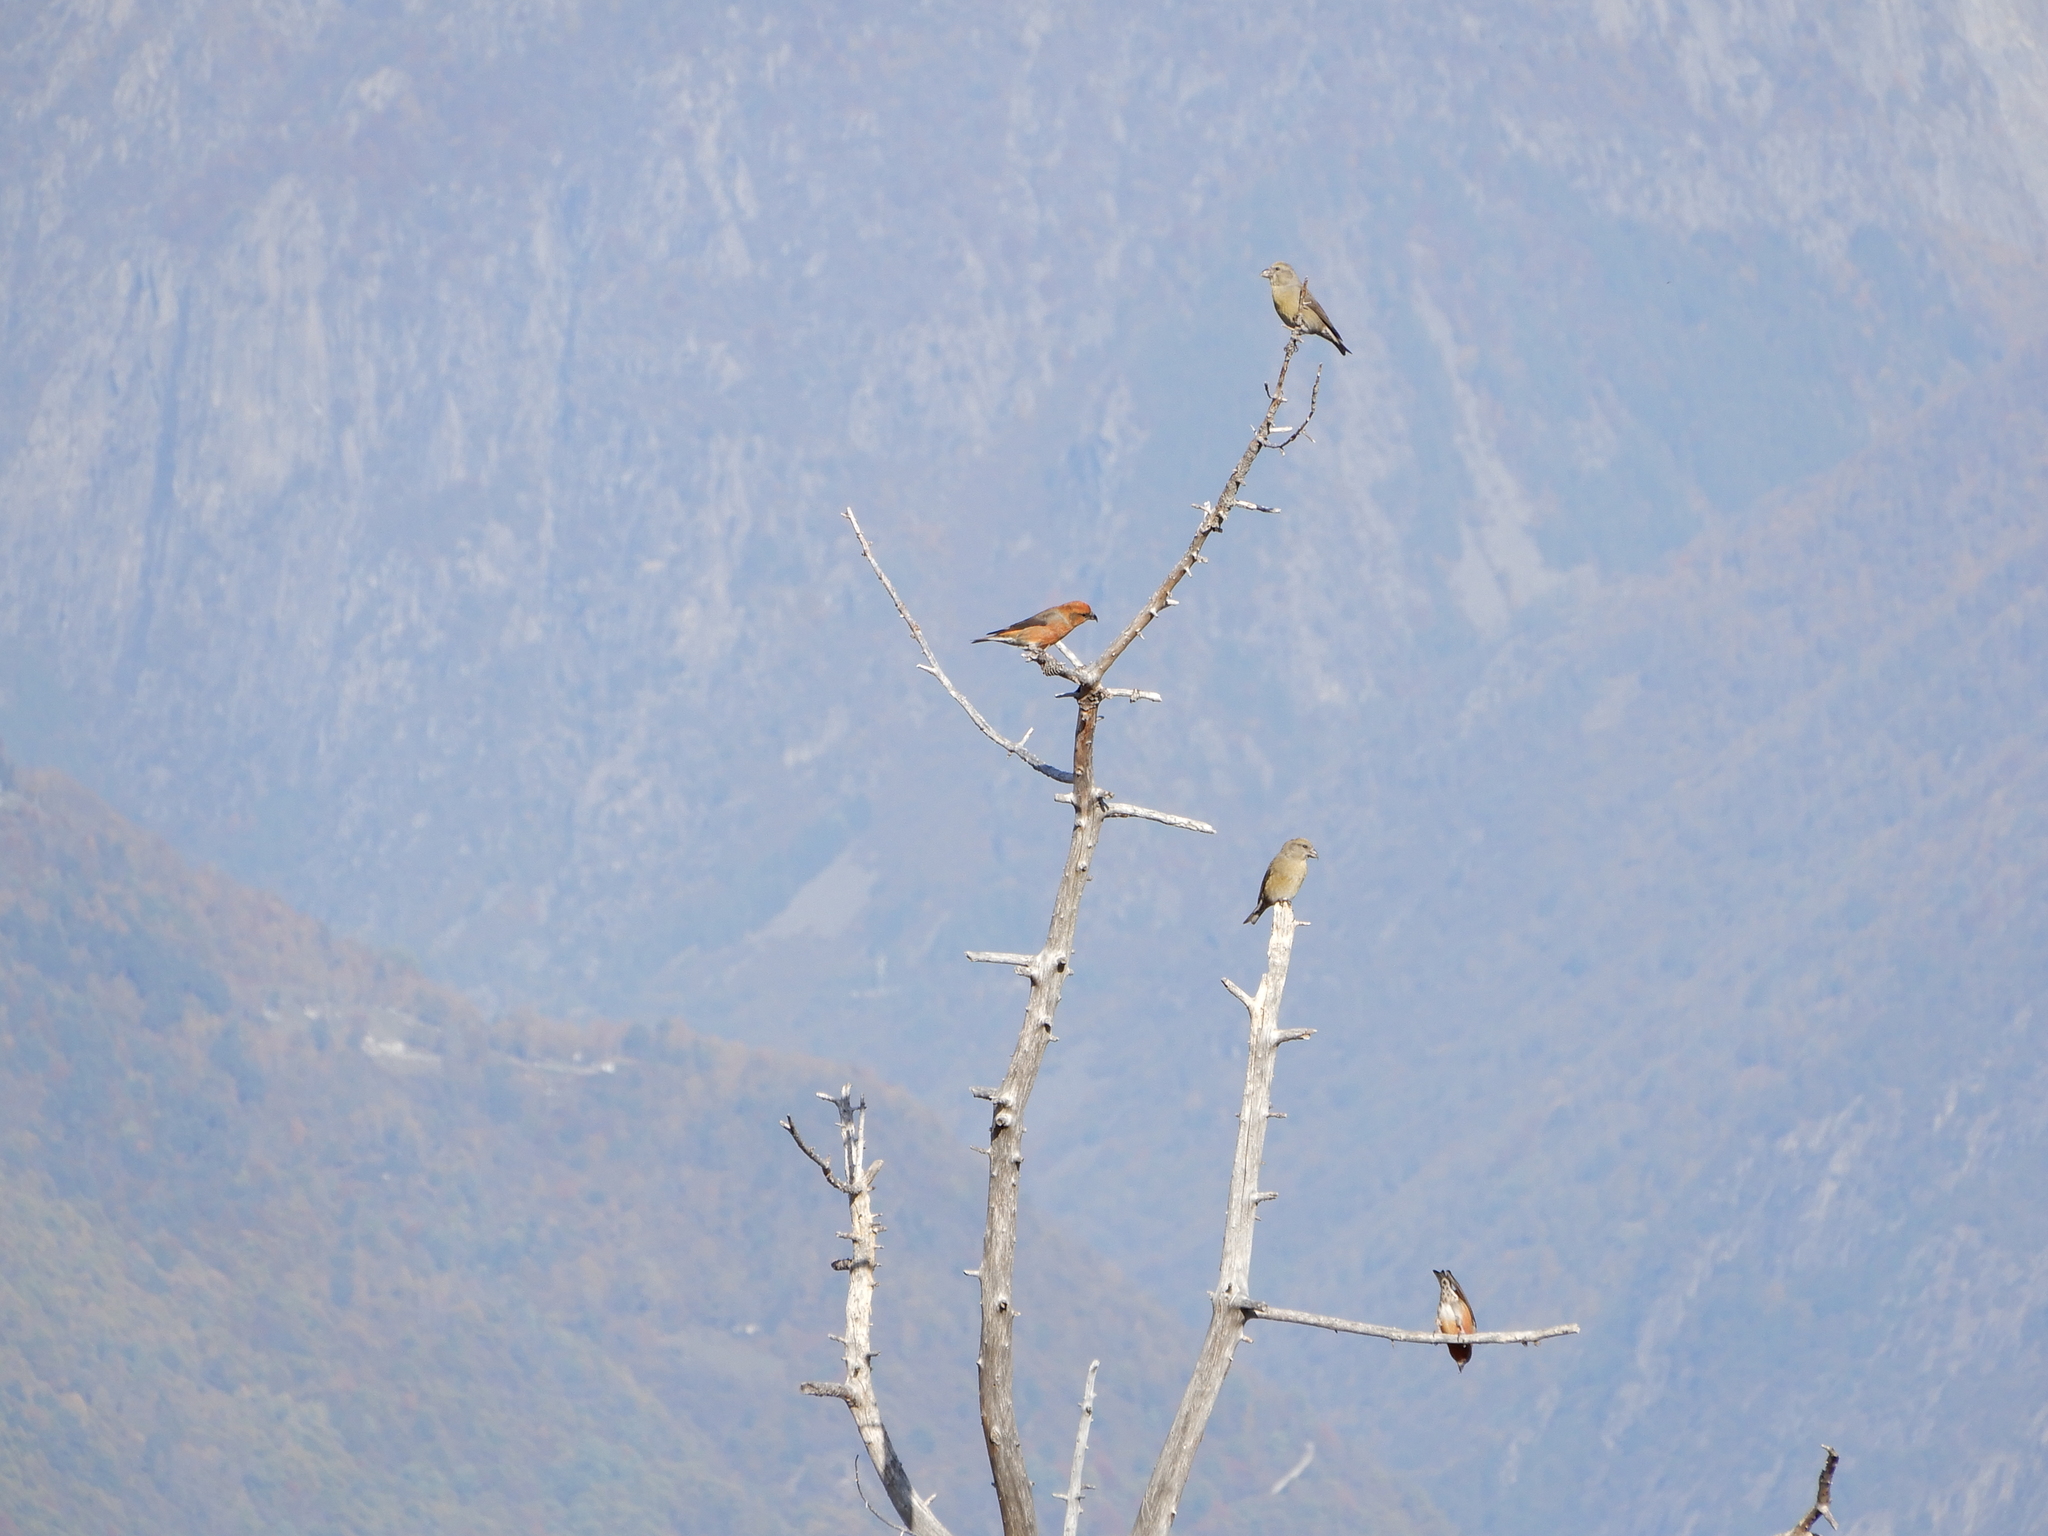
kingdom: Animalia
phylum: Chordata
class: Aves
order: Passeriformes
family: Fringillidae
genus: Loxia
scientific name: Loxia curvirostra
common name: Red crossbill
